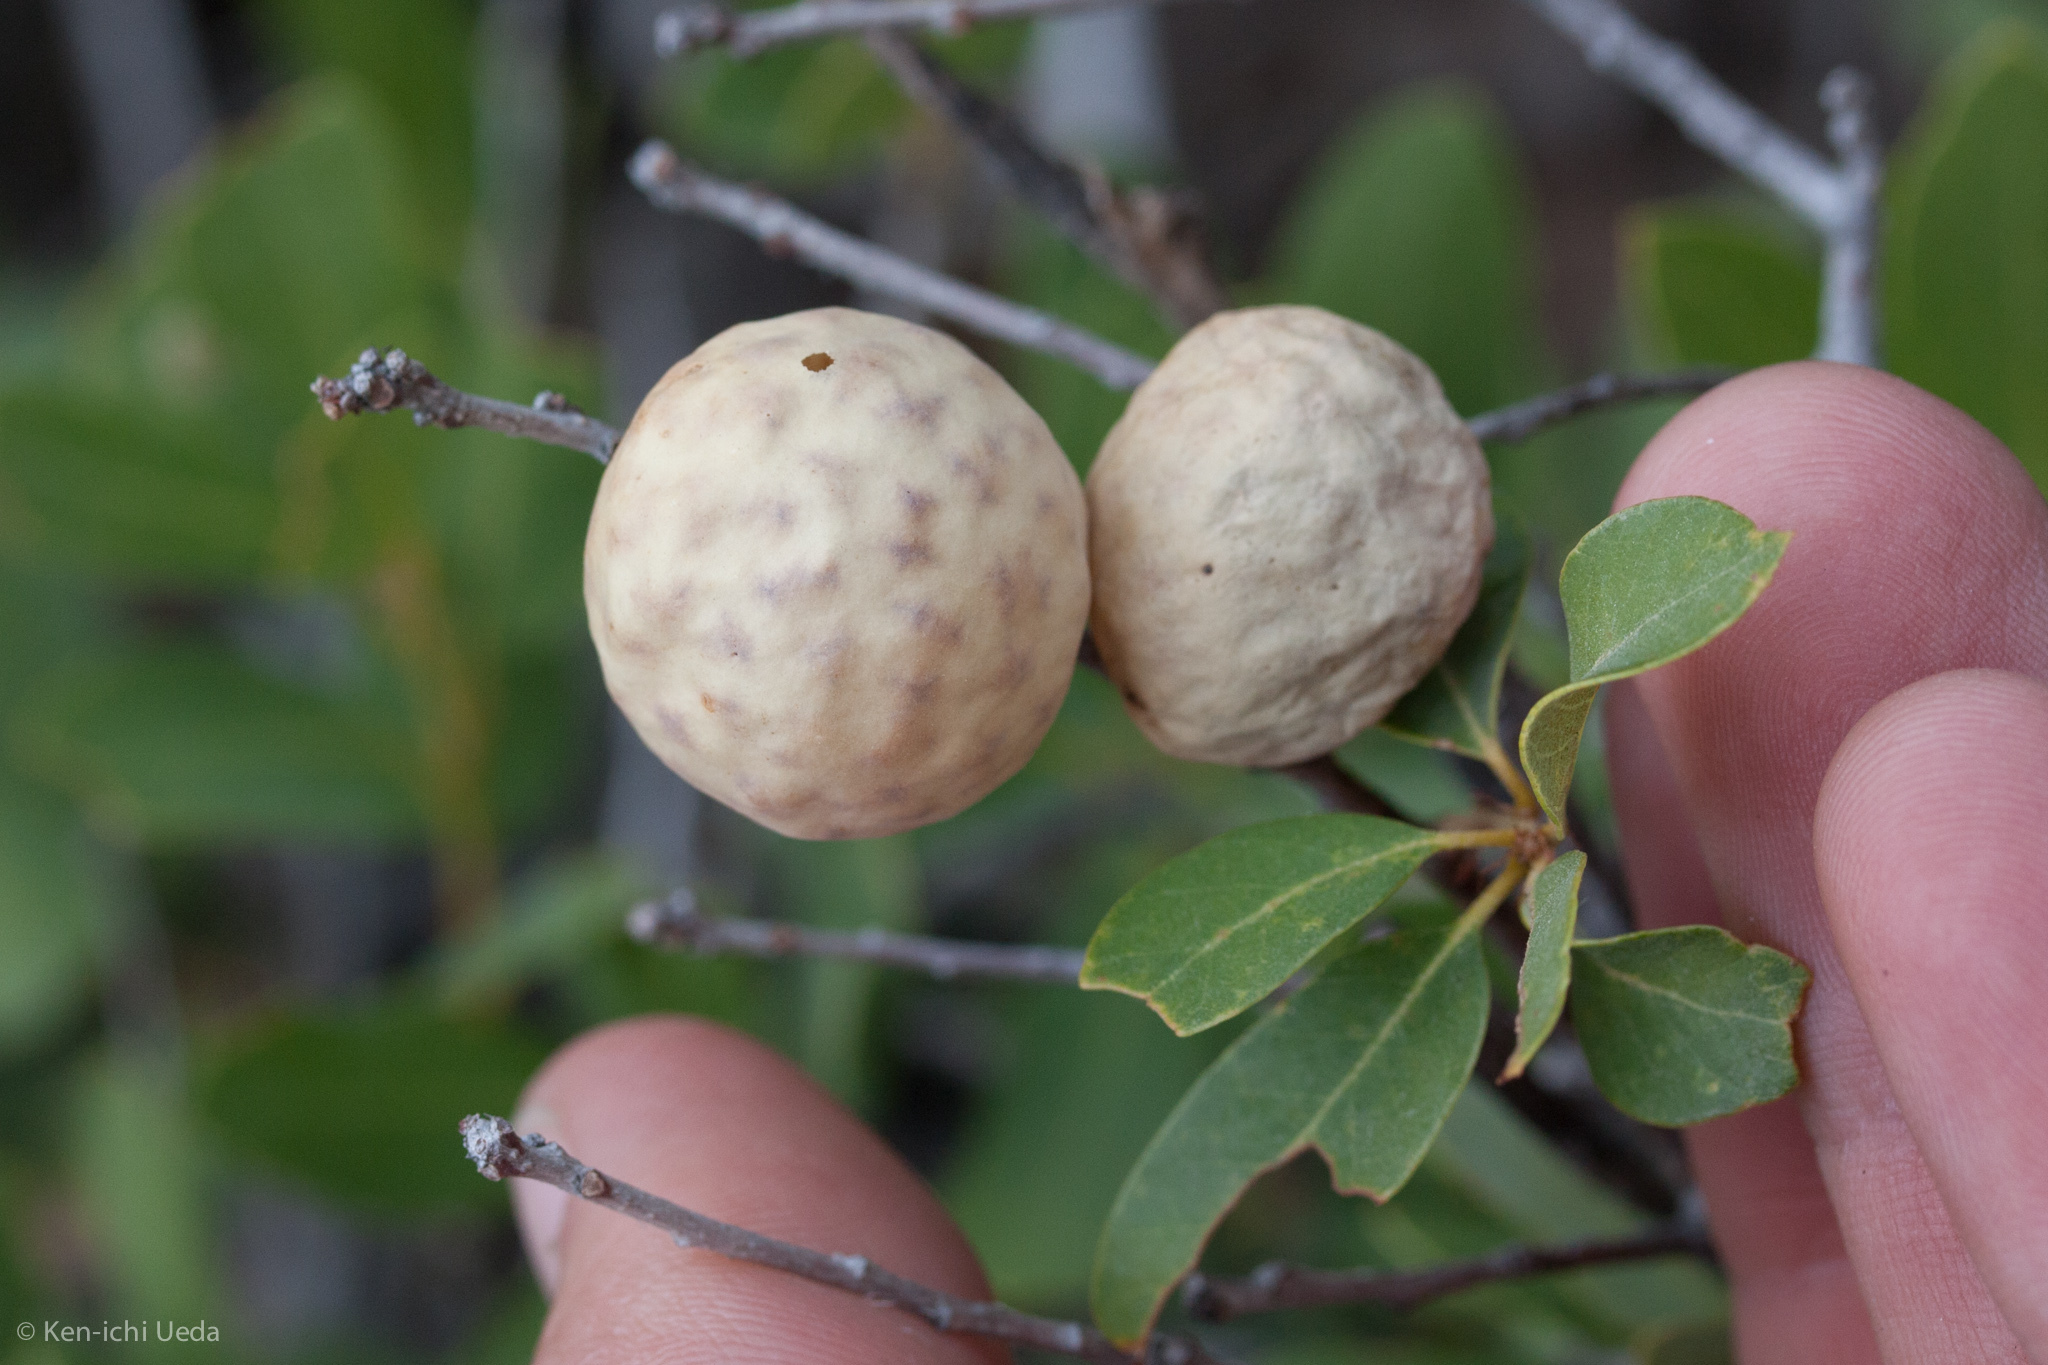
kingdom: Animalia
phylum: Arthropoda
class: Insecta
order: Hymenoptera
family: Cynipidae
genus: Andricus
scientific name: Andricus
